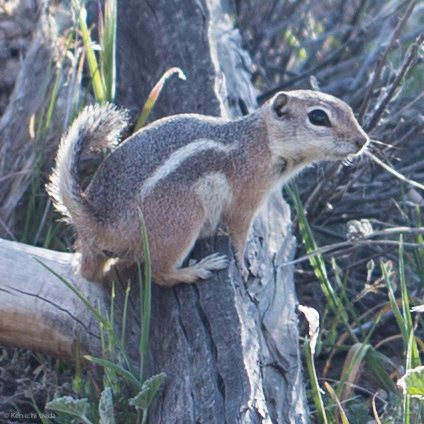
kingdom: Animalia
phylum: Chordata
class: Mammalia
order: Rodentia
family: Sciuridae
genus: Ammospermophilus
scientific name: Ammospermophilus leucurus
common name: White-tailed antelope squirrel
